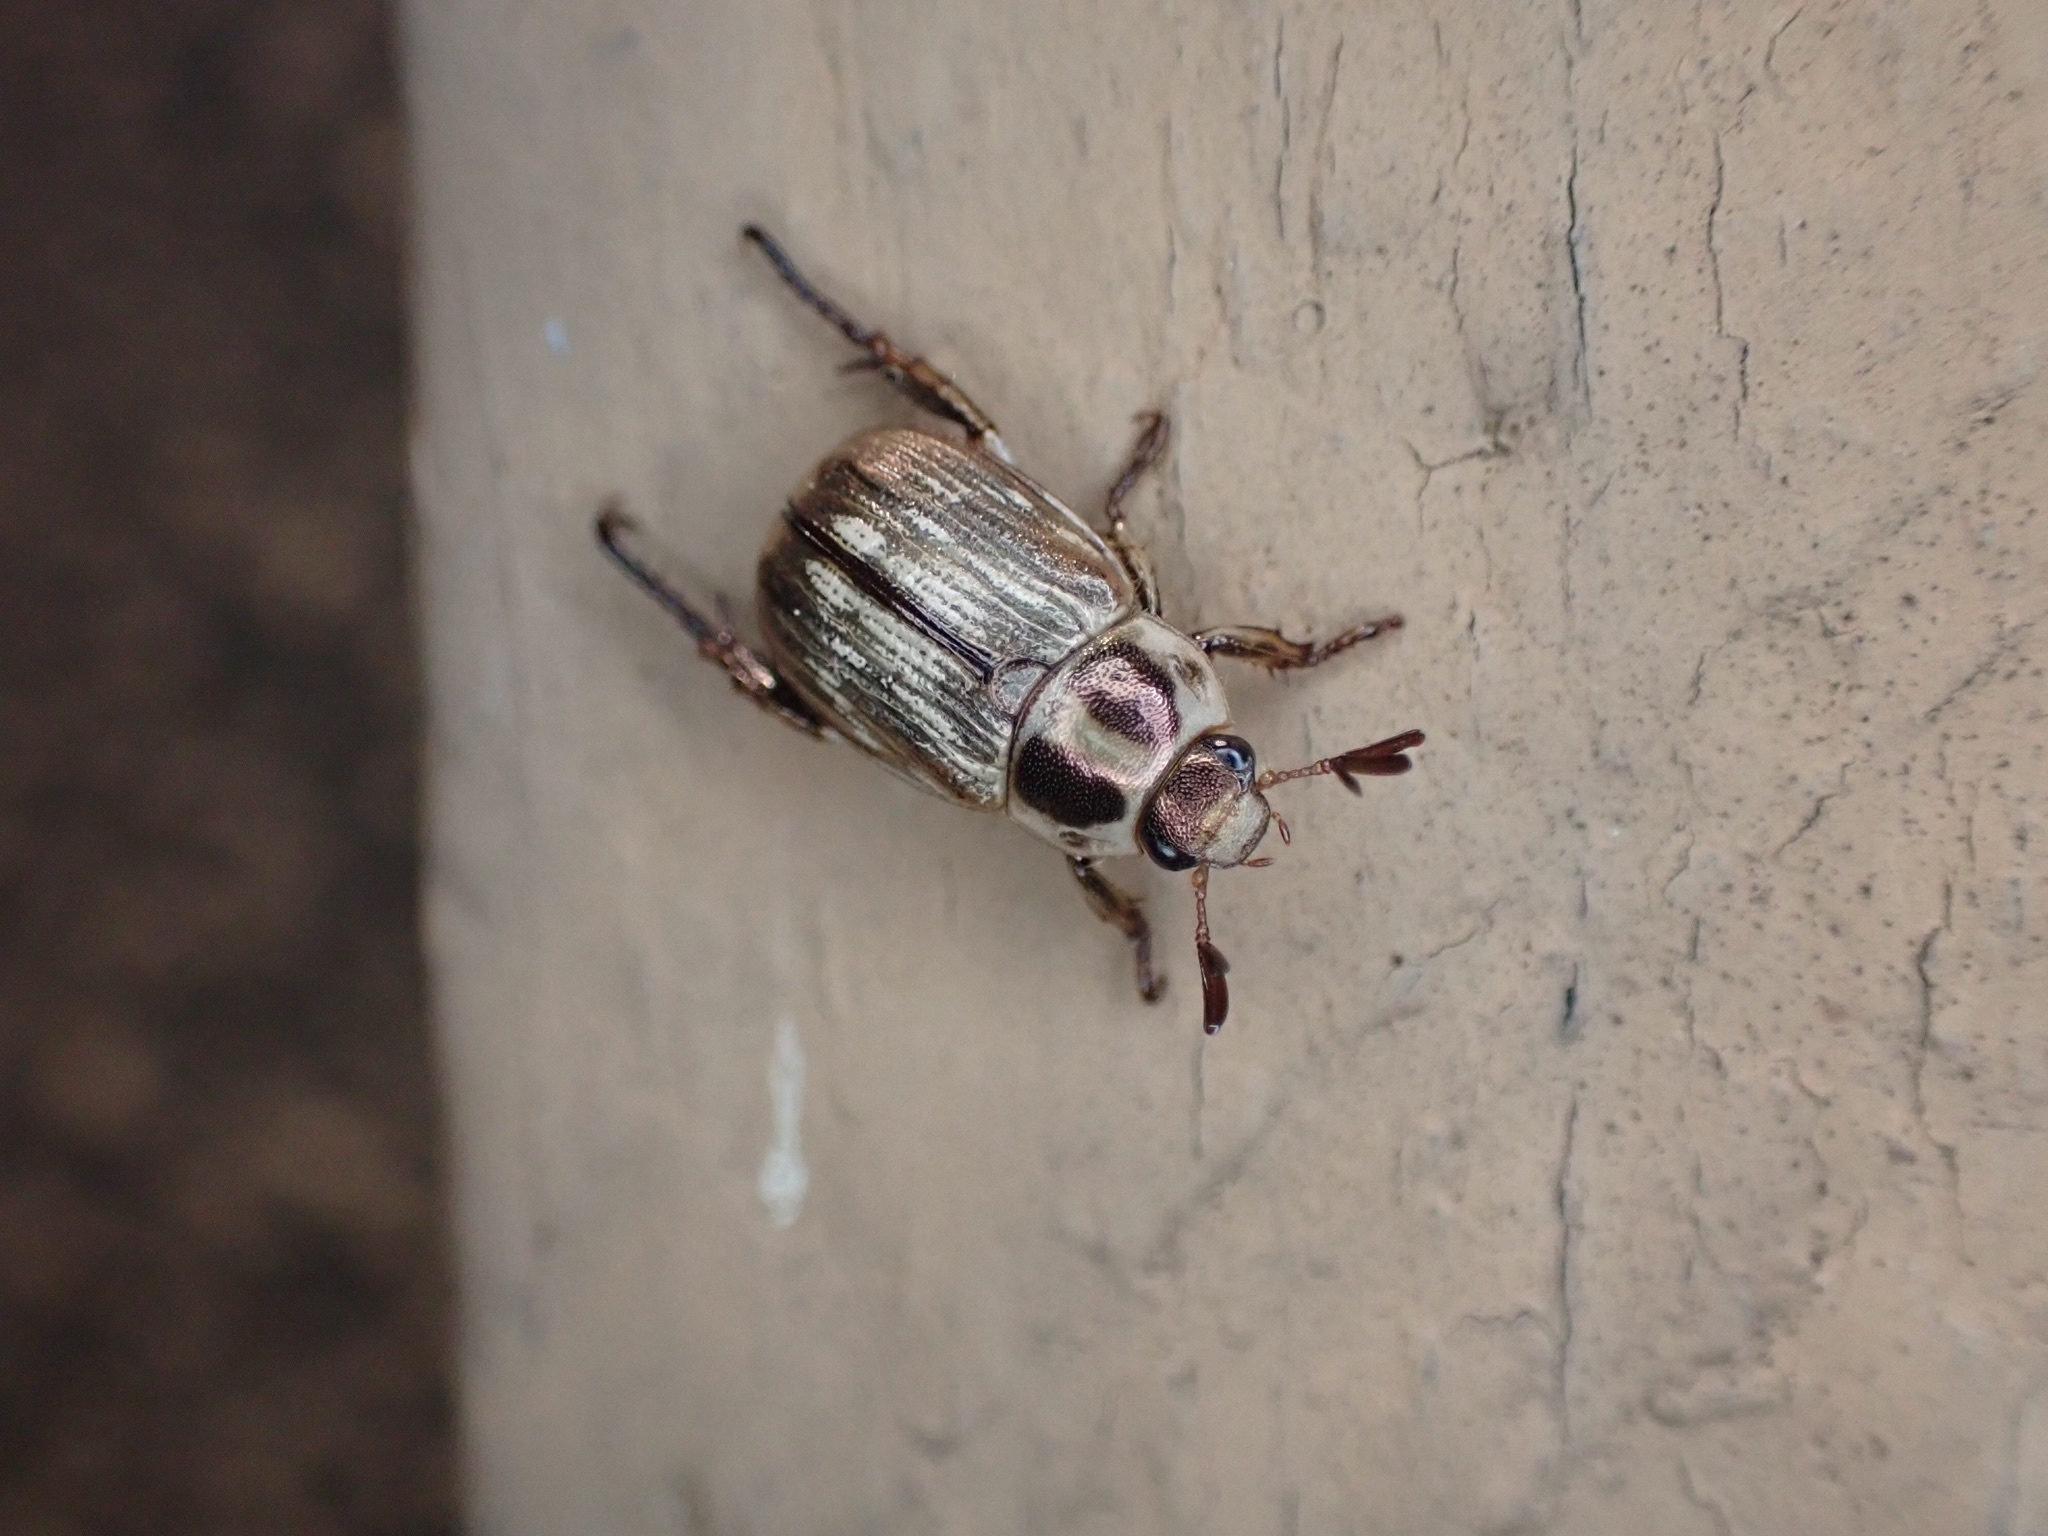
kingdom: Animalia
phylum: Arthropoda
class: Insecta
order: Coleoptera
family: Scarabaeidae
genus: Exomala
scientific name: Exomala orientalis
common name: Oriental beetle
